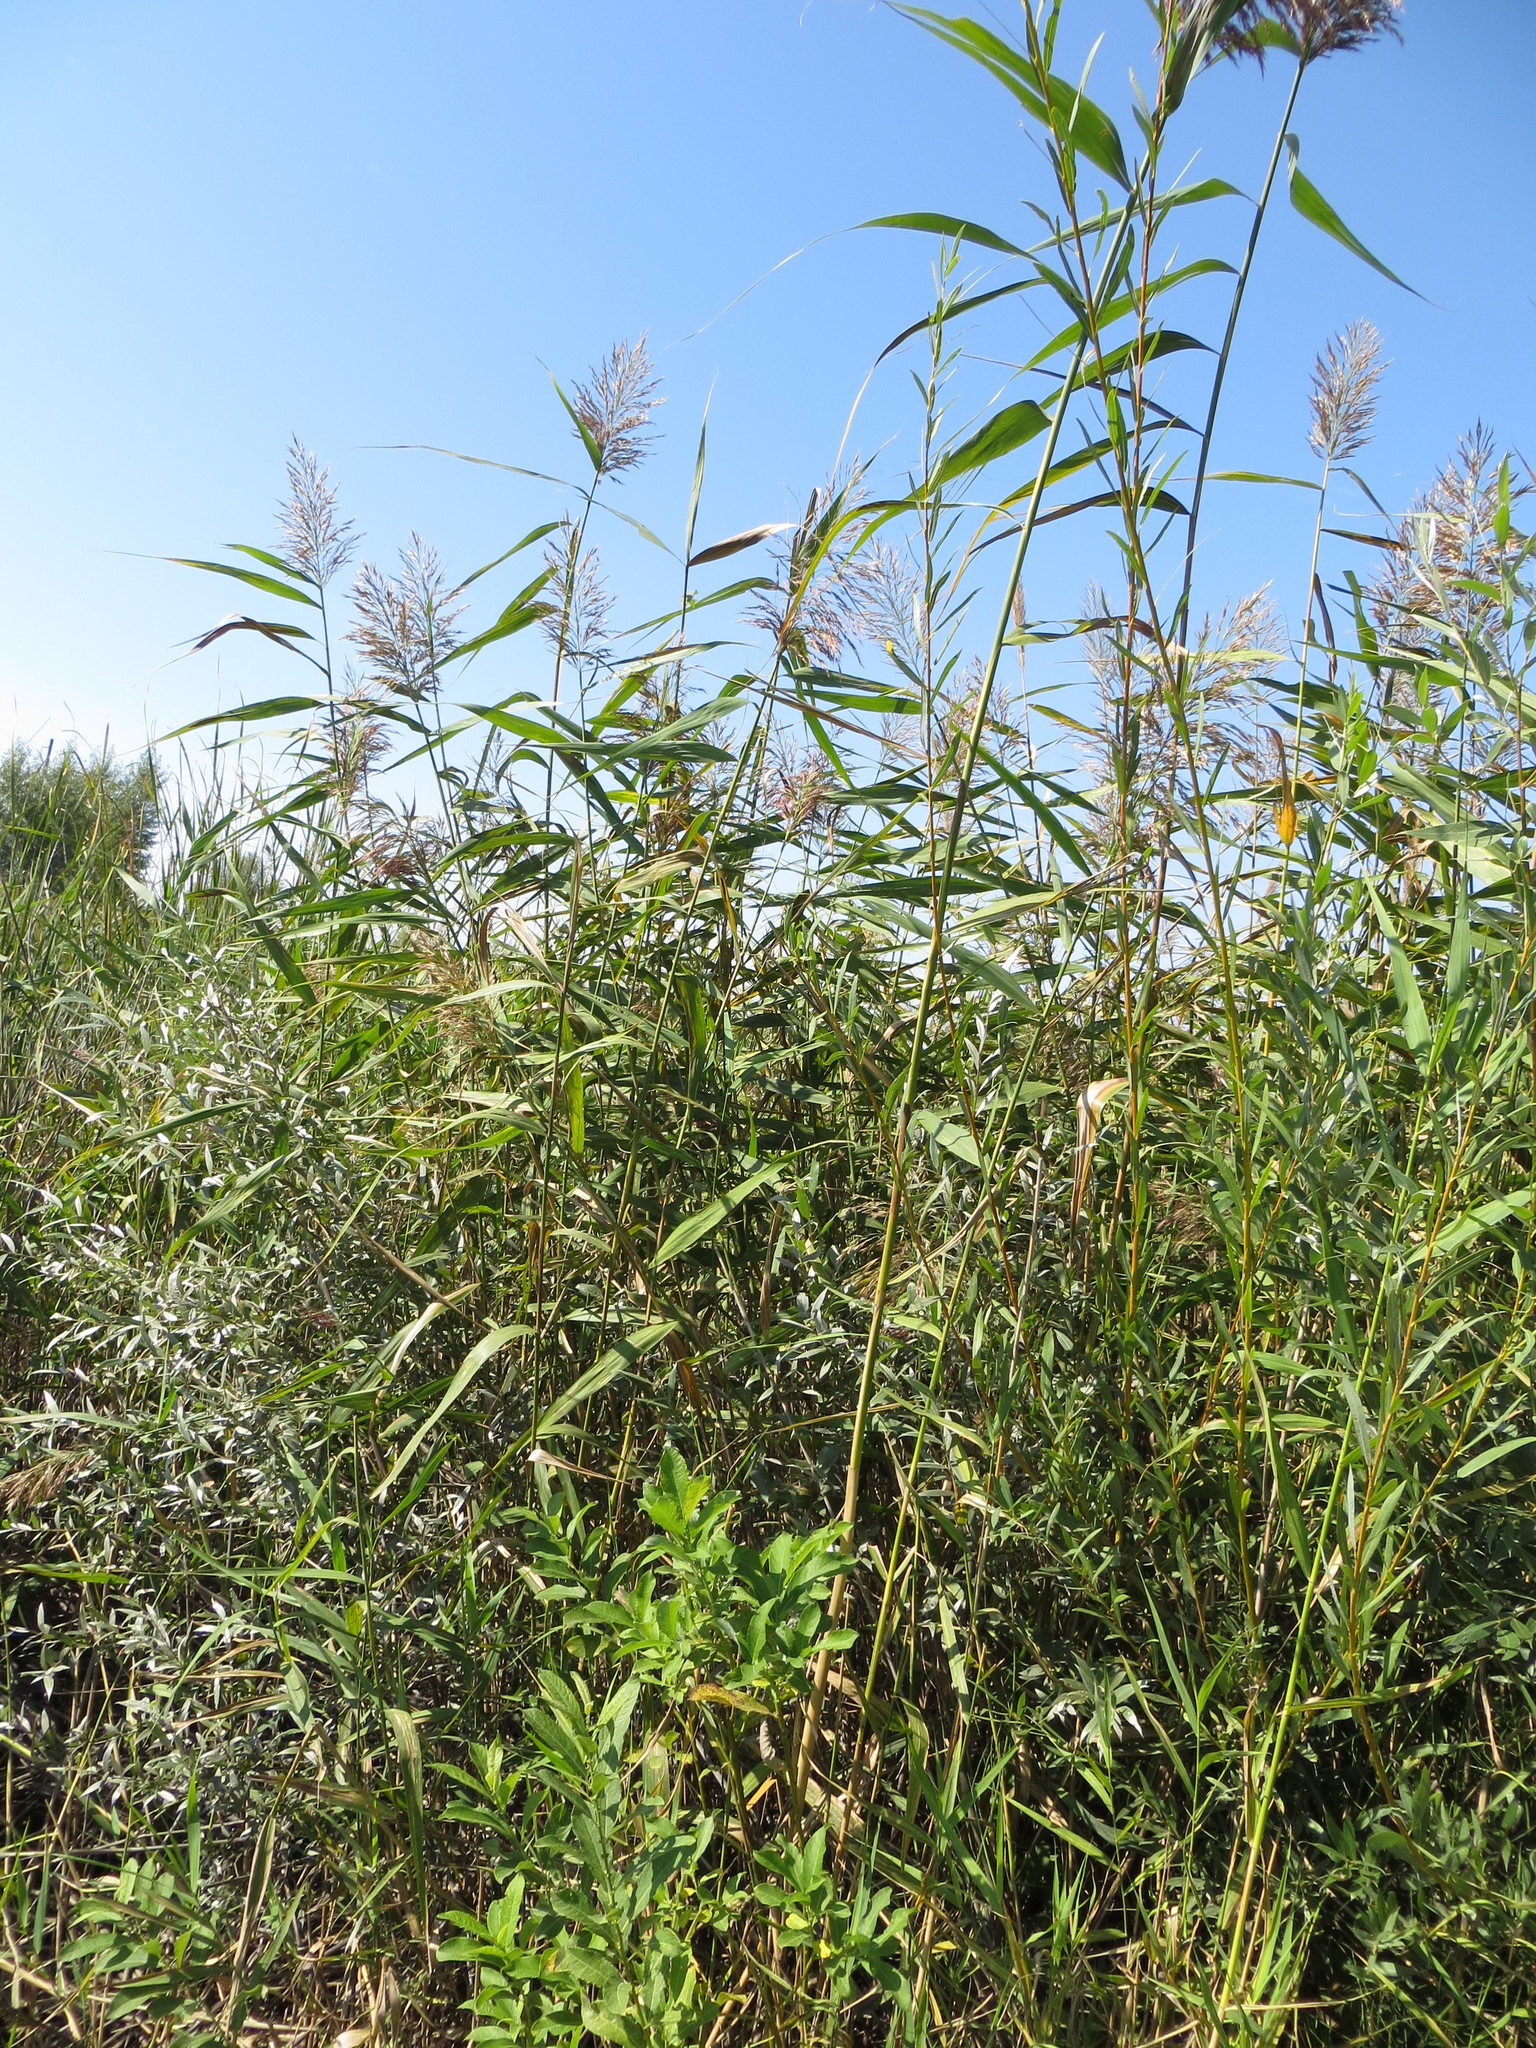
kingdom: Plantae
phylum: Tracheophyta
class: Liliopsida
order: Poales
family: Poaceae
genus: Phragmites
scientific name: Phragmites australis
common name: Common reed
